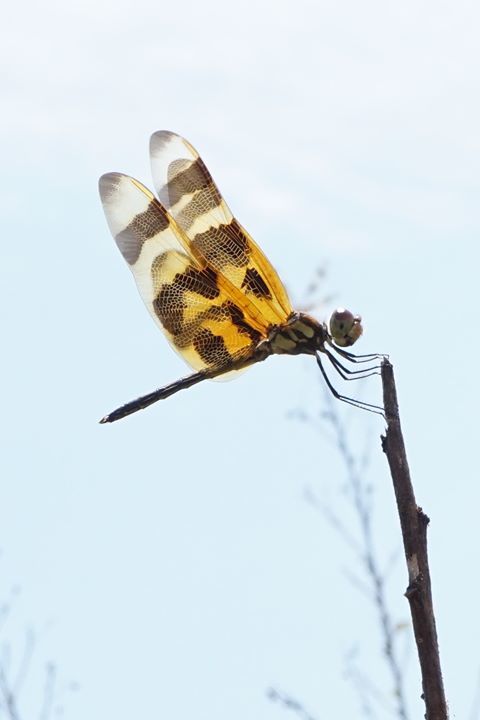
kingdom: Animalia
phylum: Arthropoda
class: Insecta
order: Odonata
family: Libellulidae
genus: Celithemis
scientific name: Celithemis eponina
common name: Halloween pennant
